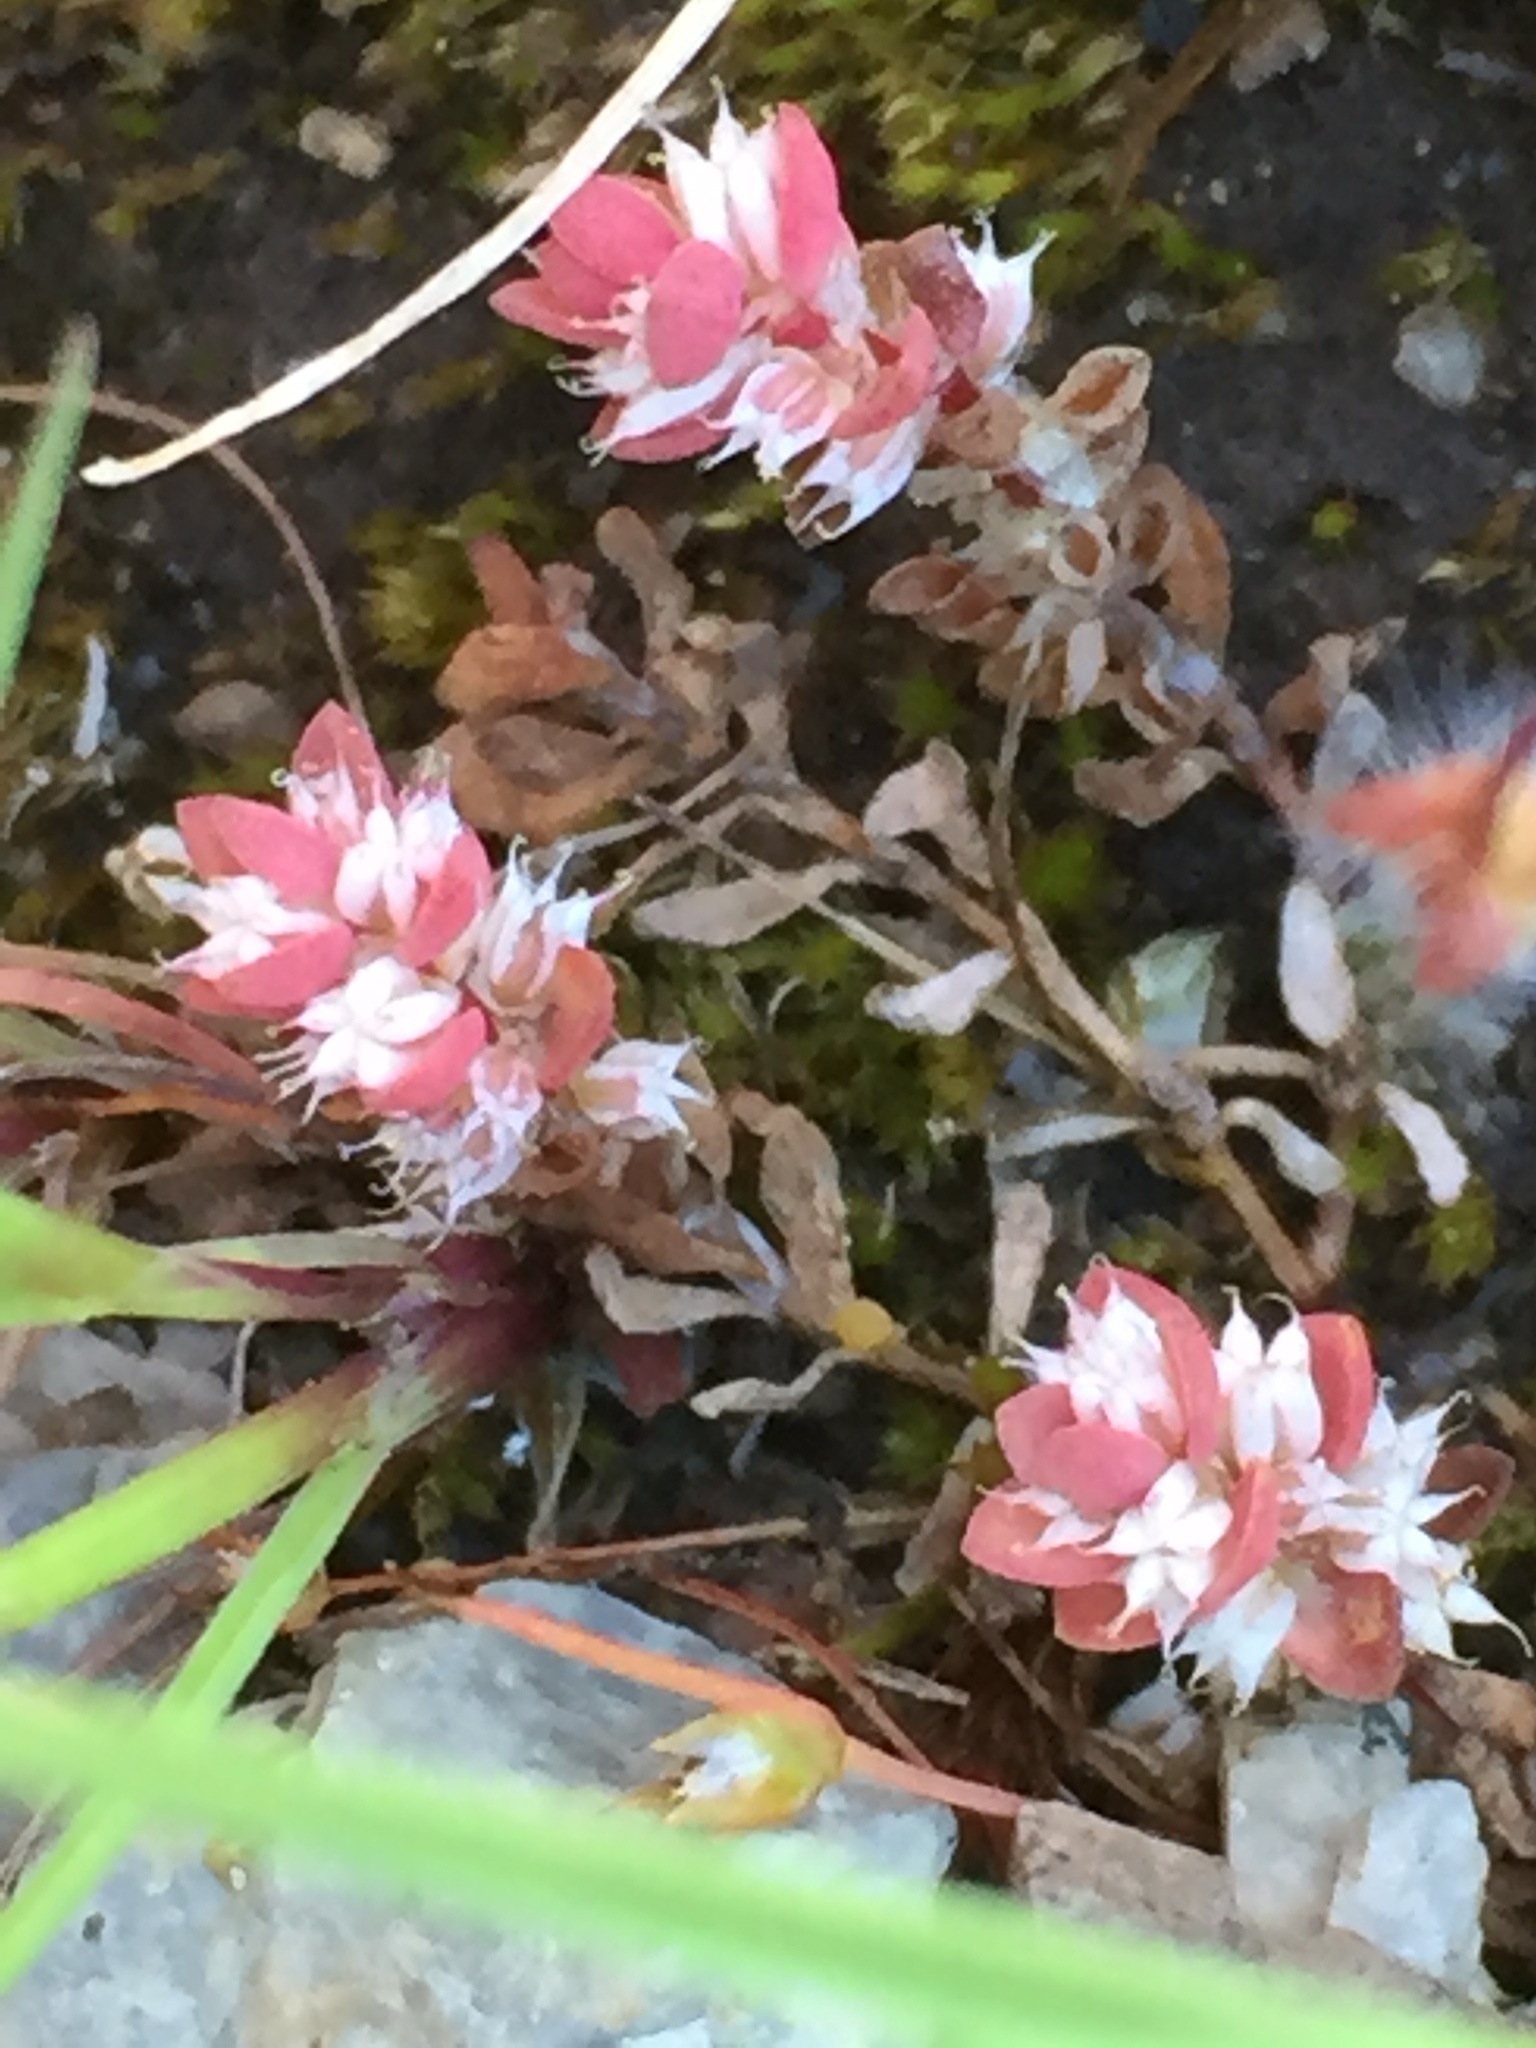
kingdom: Plantae
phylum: Tracheophyta
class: Magnoliopsida
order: Caryophyllales
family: Caryophyllaceae
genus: Illecebrum
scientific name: Illecebrum verticillatum
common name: Coral necklace
